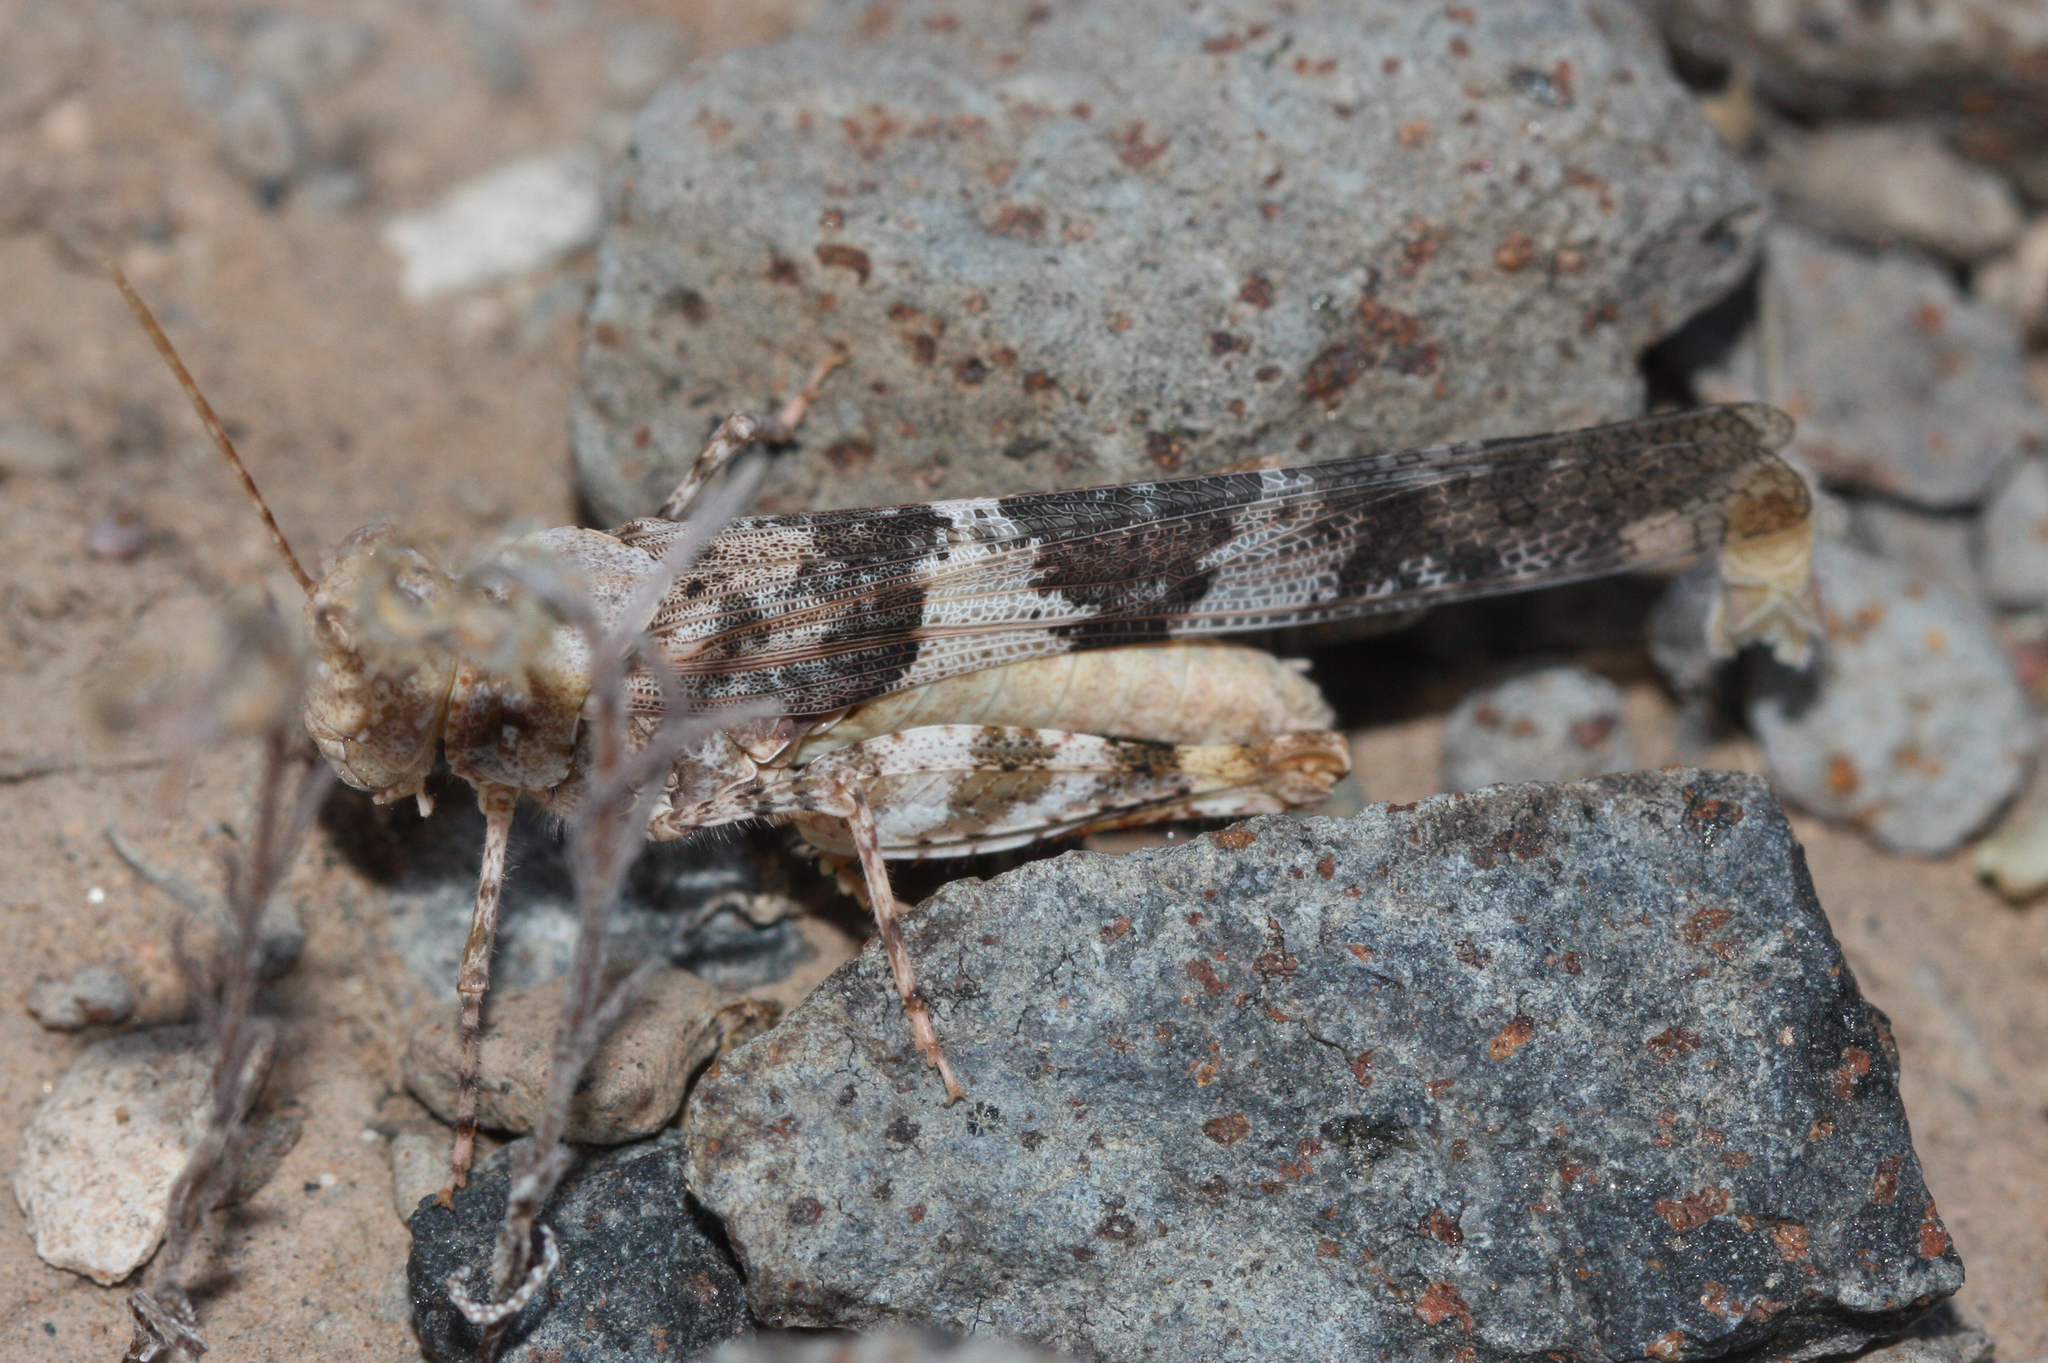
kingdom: Animalia
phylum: Arthropoda
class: Insecta
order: Orthoptera
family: Acrididae
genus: Trimerotropis
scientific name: Trimerotropis pallidipennis
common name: Pallid-winged grasshopper
